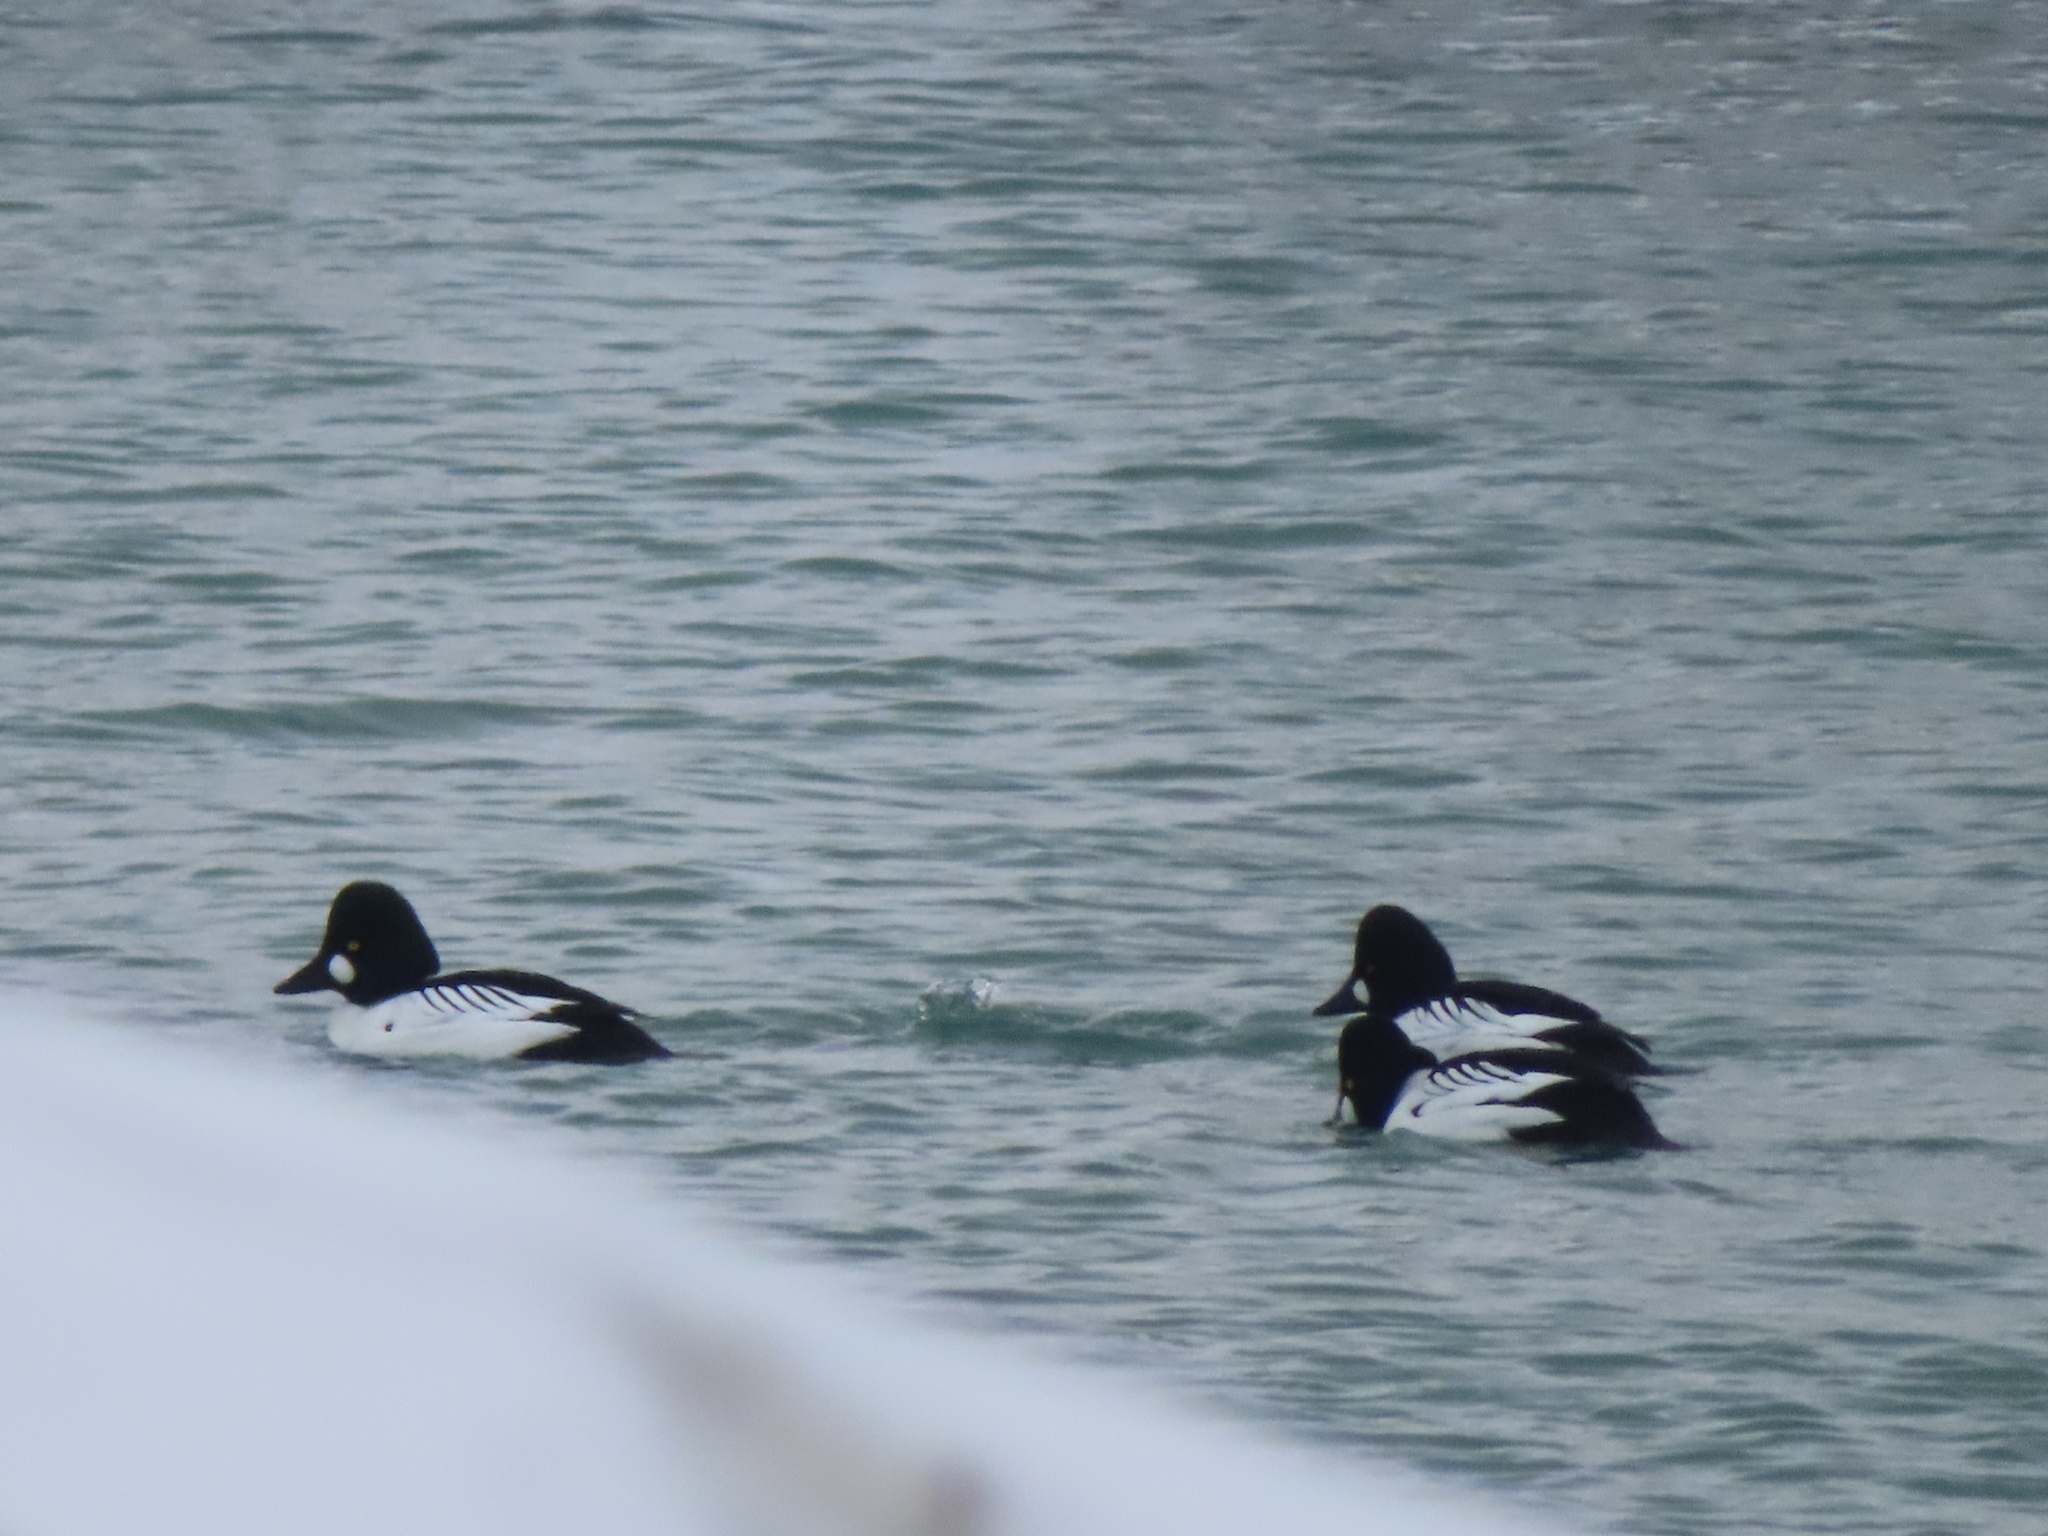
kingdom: Animalia
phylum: Chordata
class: Aves
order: Anseriformes
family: Anatidae
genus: Bucephala
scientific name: Bucephala clangula
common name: Common goldeneye
